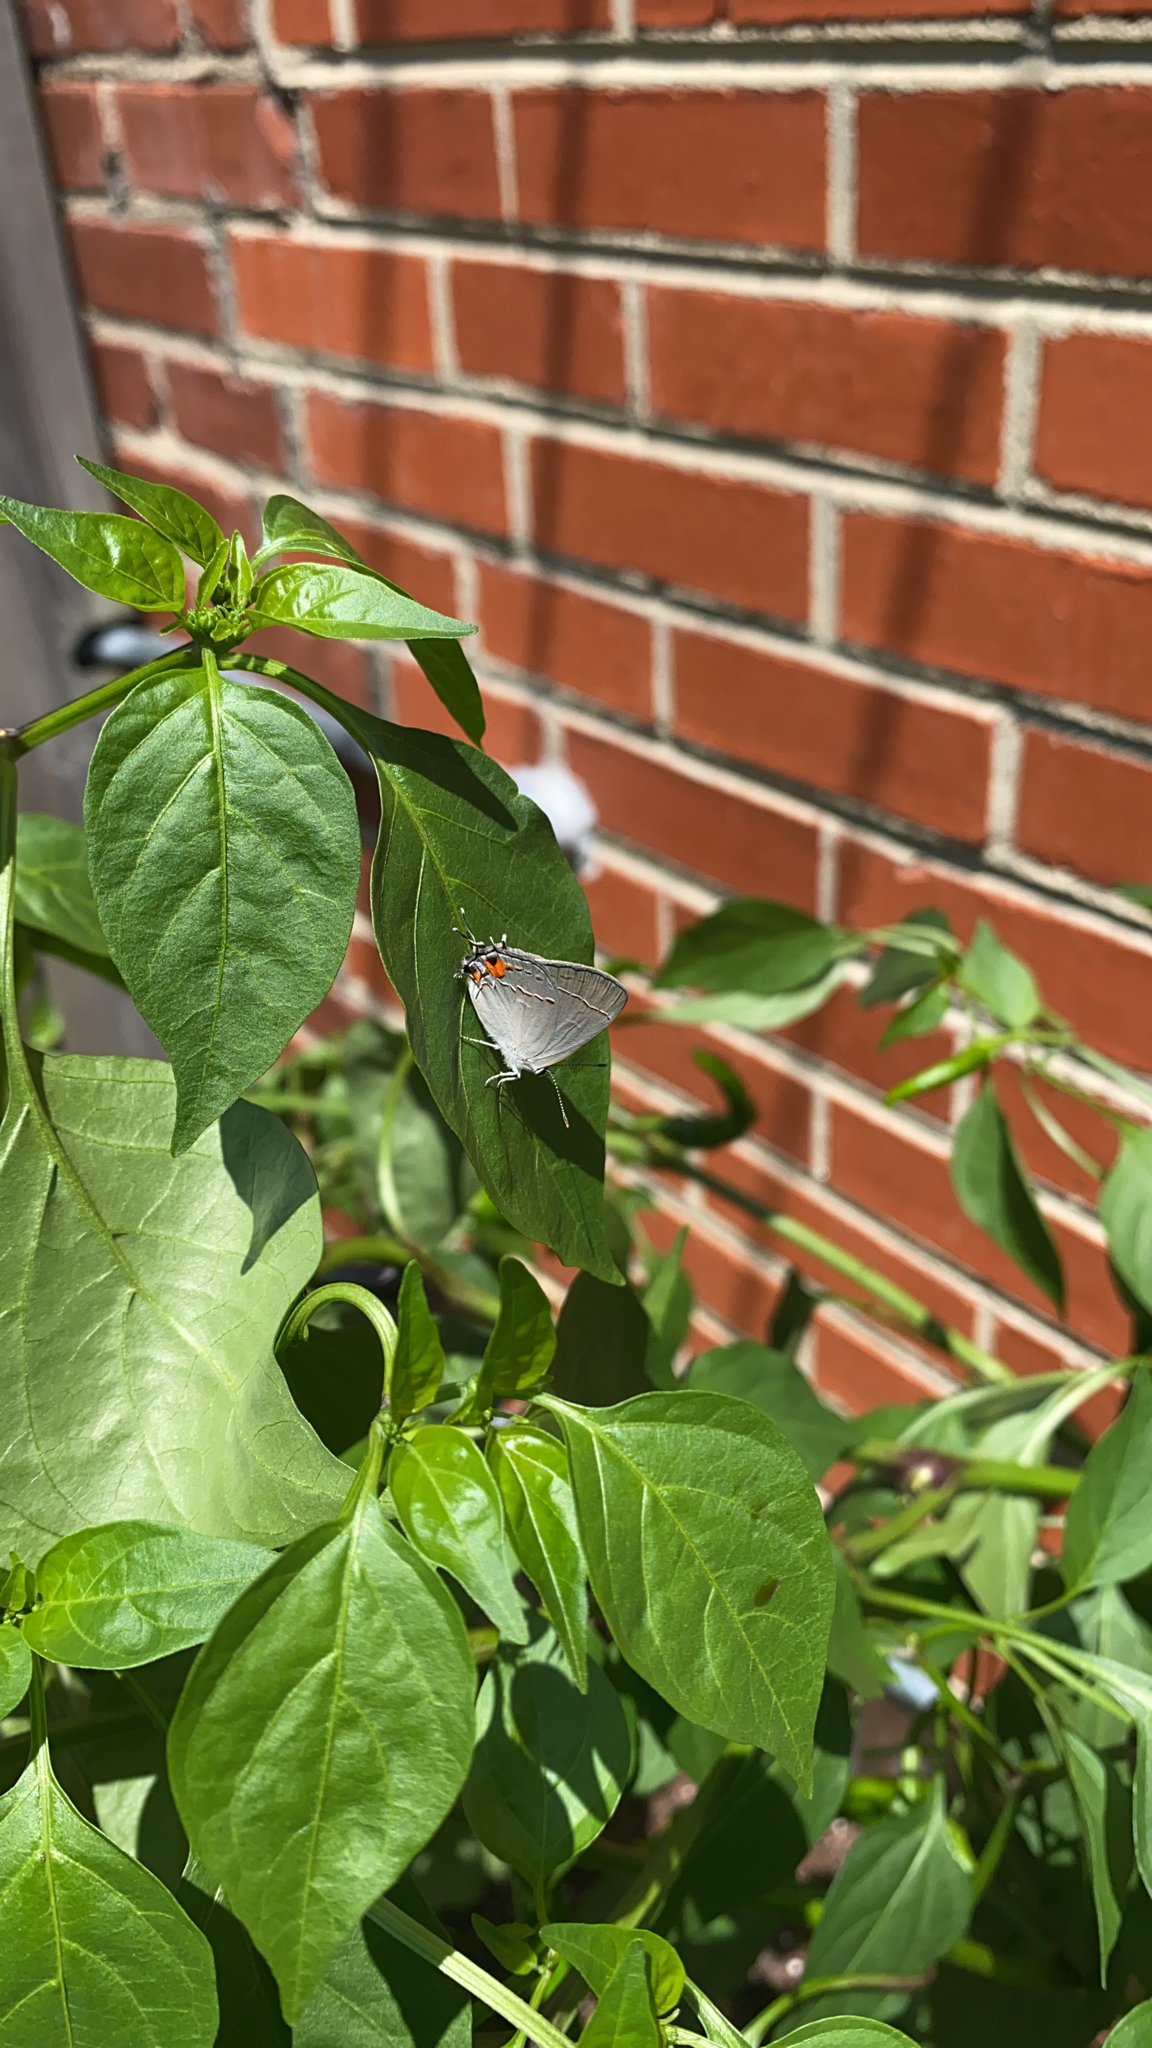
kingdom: Animalia
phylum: Arthropoda
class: Insecta
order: Lepidoptera
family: Lycaenidae
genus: Strymon
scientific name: Strymon melinus
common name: Gray hairstreak
